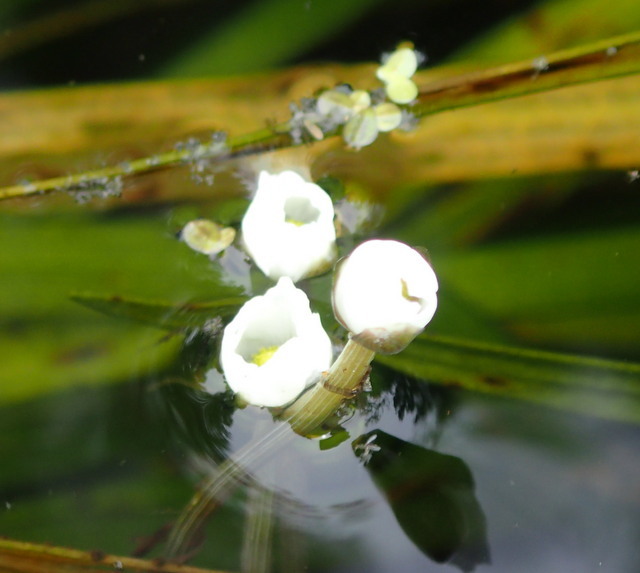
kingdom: Plantae
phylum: Tracheophyta
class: Liliopsida
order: Alismatales
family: Alismataceae
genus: Sagittaria
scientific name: Sagittaria kurziana
